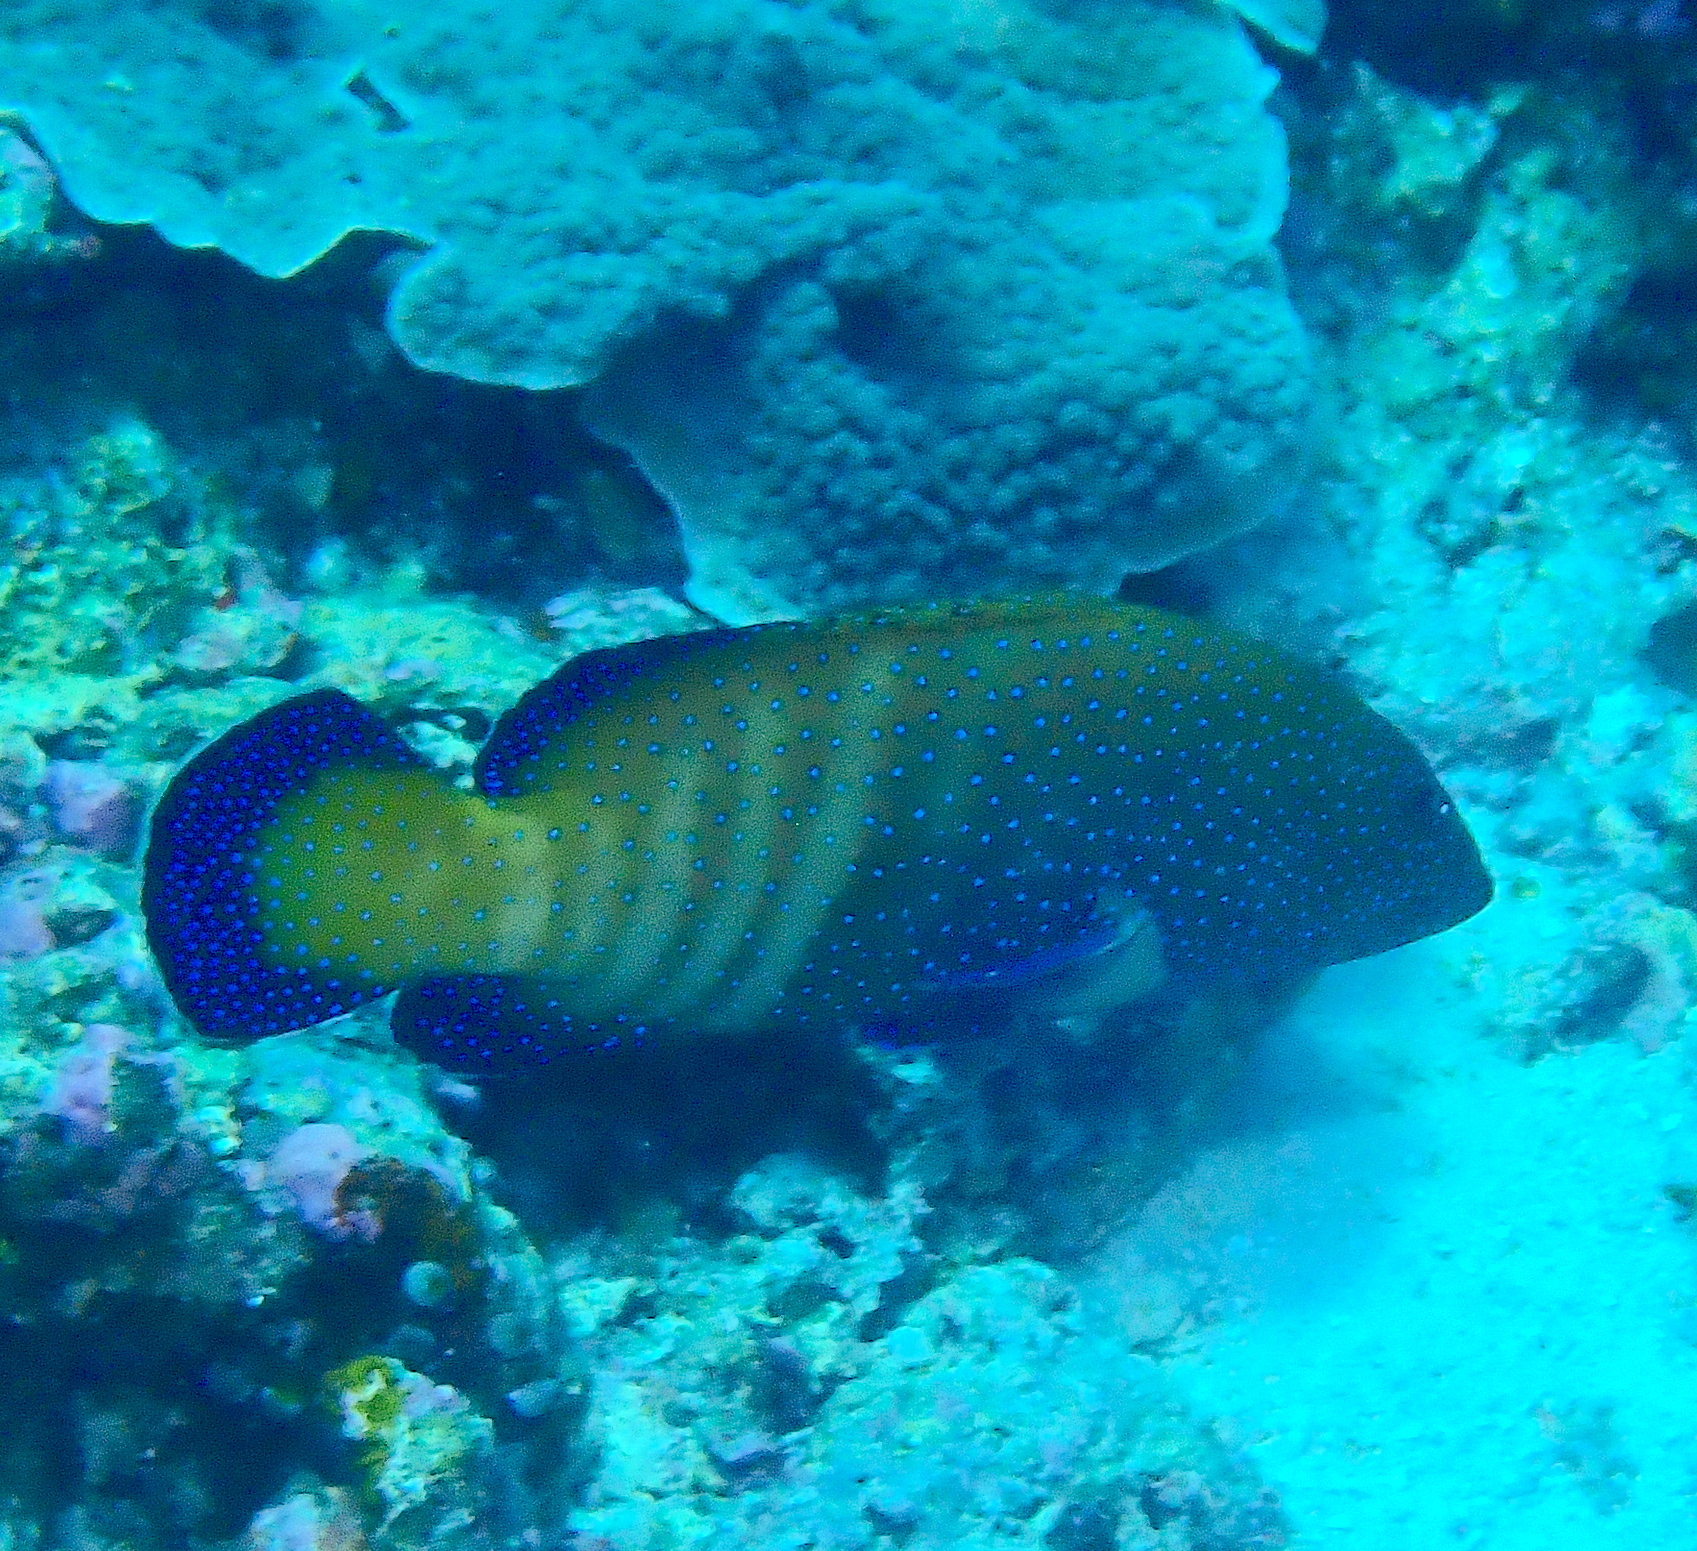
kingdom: Animalia
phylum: Chordata
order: Perciformes
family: Serranidae
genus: Cephalopholis
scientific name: Cephalopholis argus
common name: Peacock grouper
